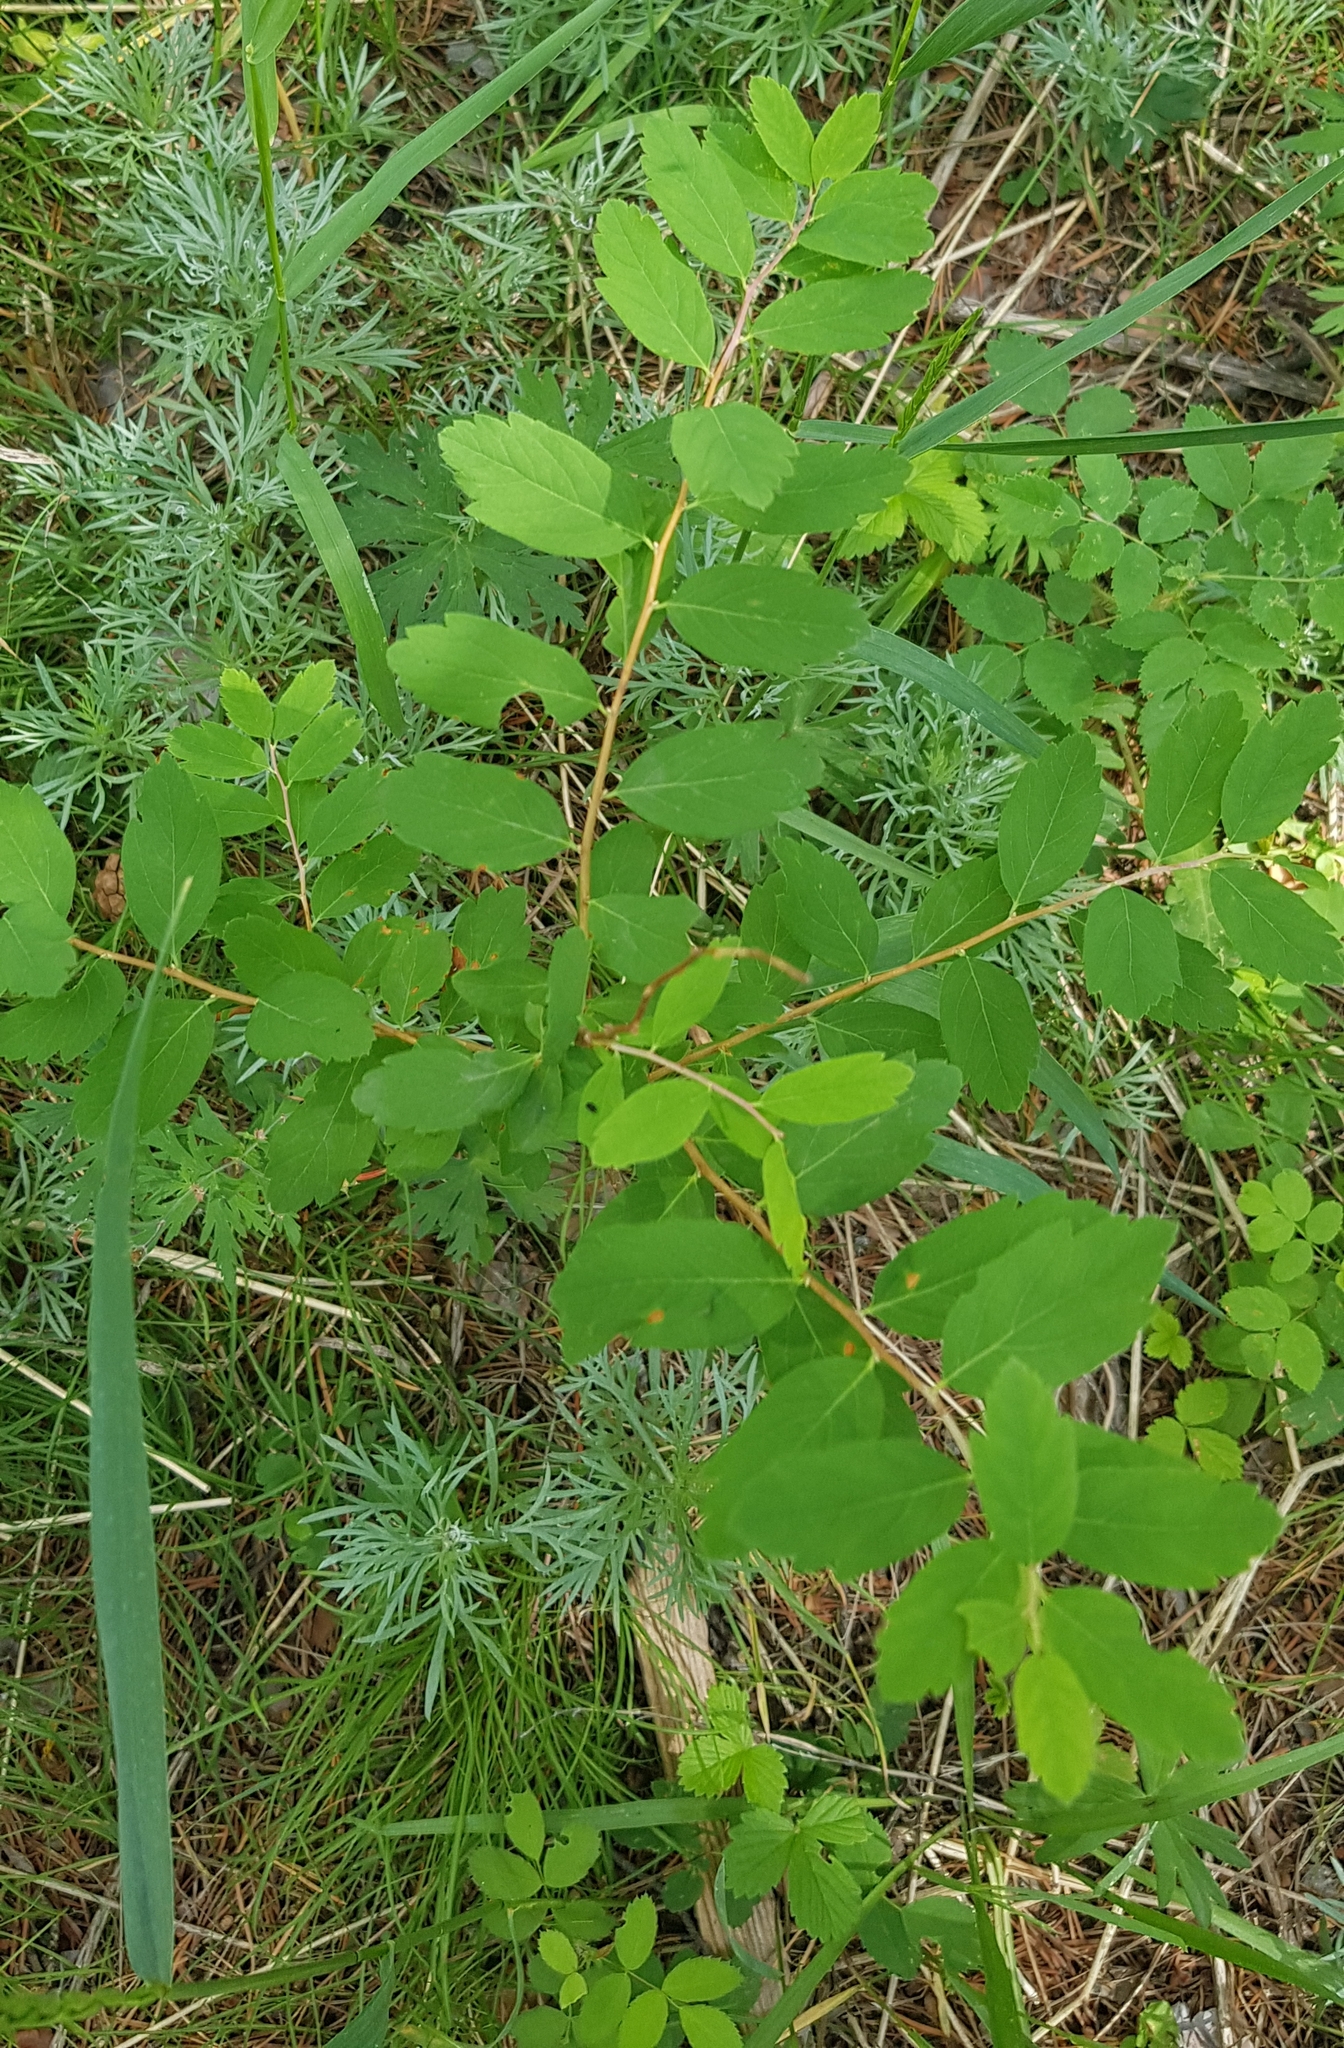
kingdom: Plantae
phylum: Tracheophyta
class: Magnoliopsida
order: Rosales
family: Rosaceae
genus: Spiraea
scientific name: Spiraea media
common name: Russian spiraea
